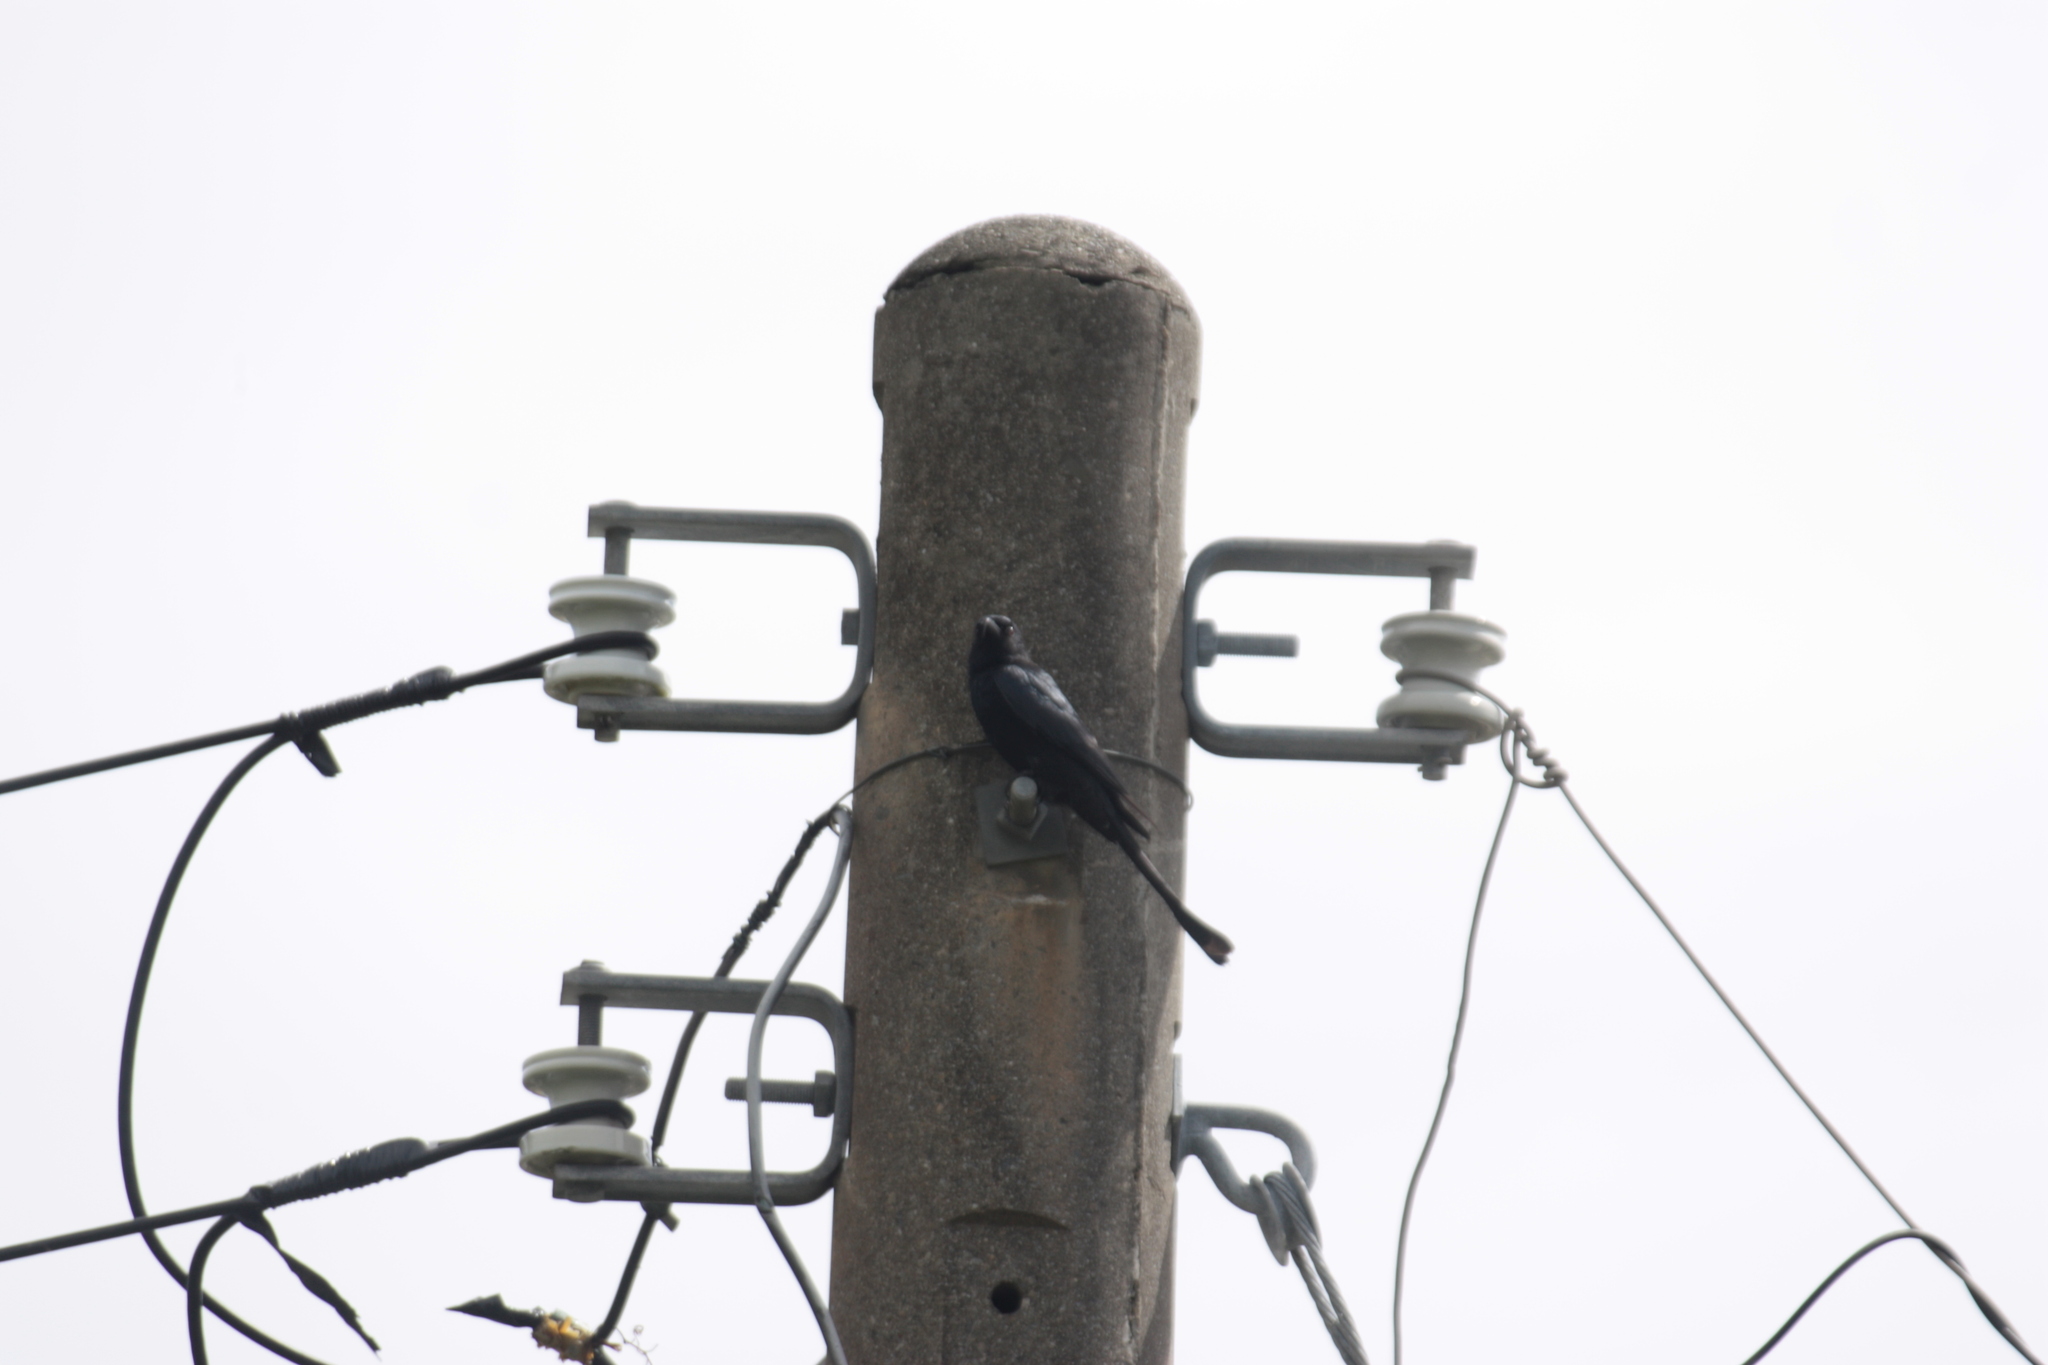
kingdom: Animalia
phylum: Chordata
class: Aves
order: Passeriformes
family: Dicruridae
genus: Dicrurus
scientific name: Dicrurus macrocercus
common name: Black drongo
